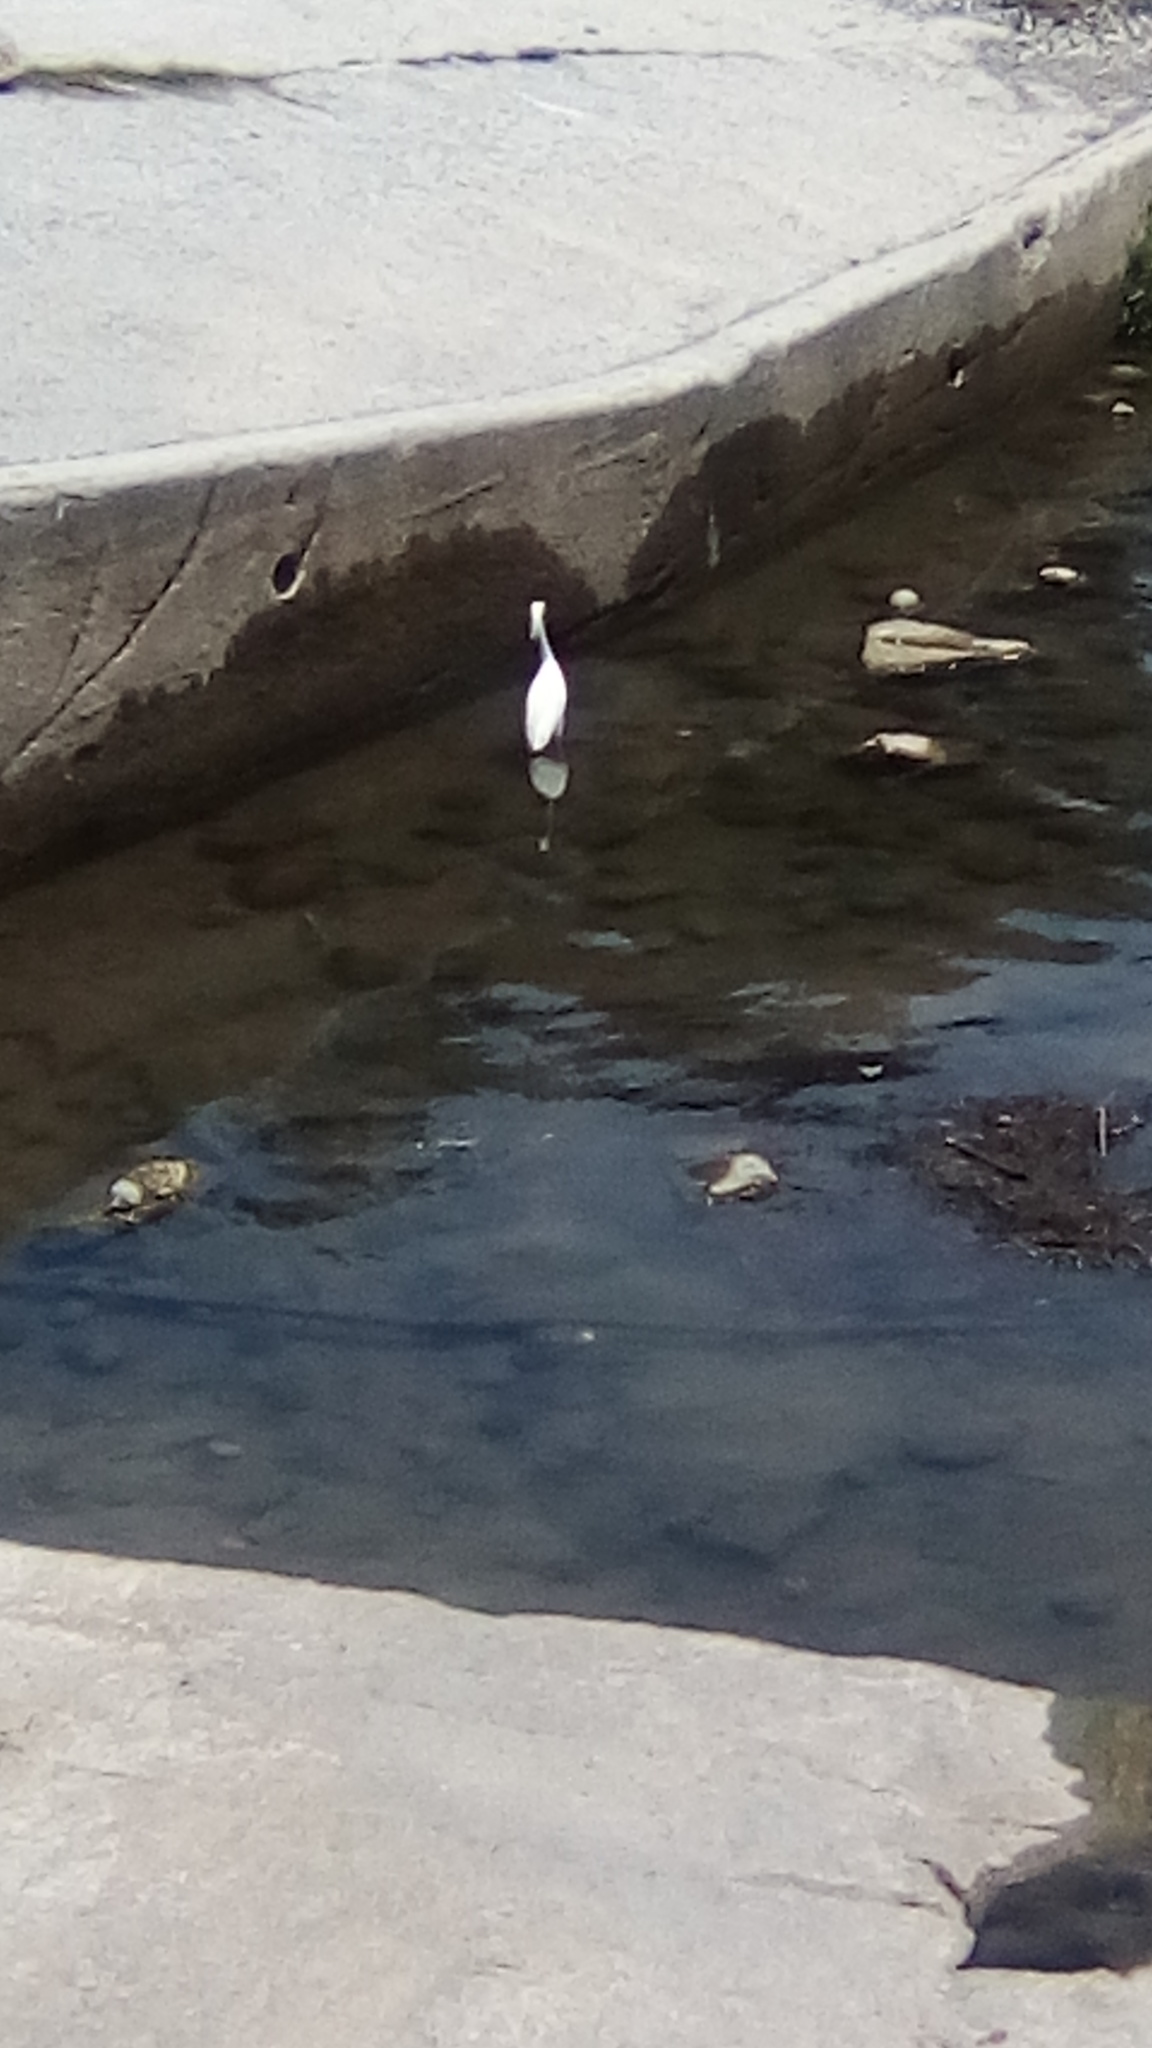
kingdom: Animalia
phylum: Chordata
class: Aves
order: Pelecaniformes
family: Ardeidae
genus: Egretta
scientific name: Egretta thula
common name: Snowy egret
